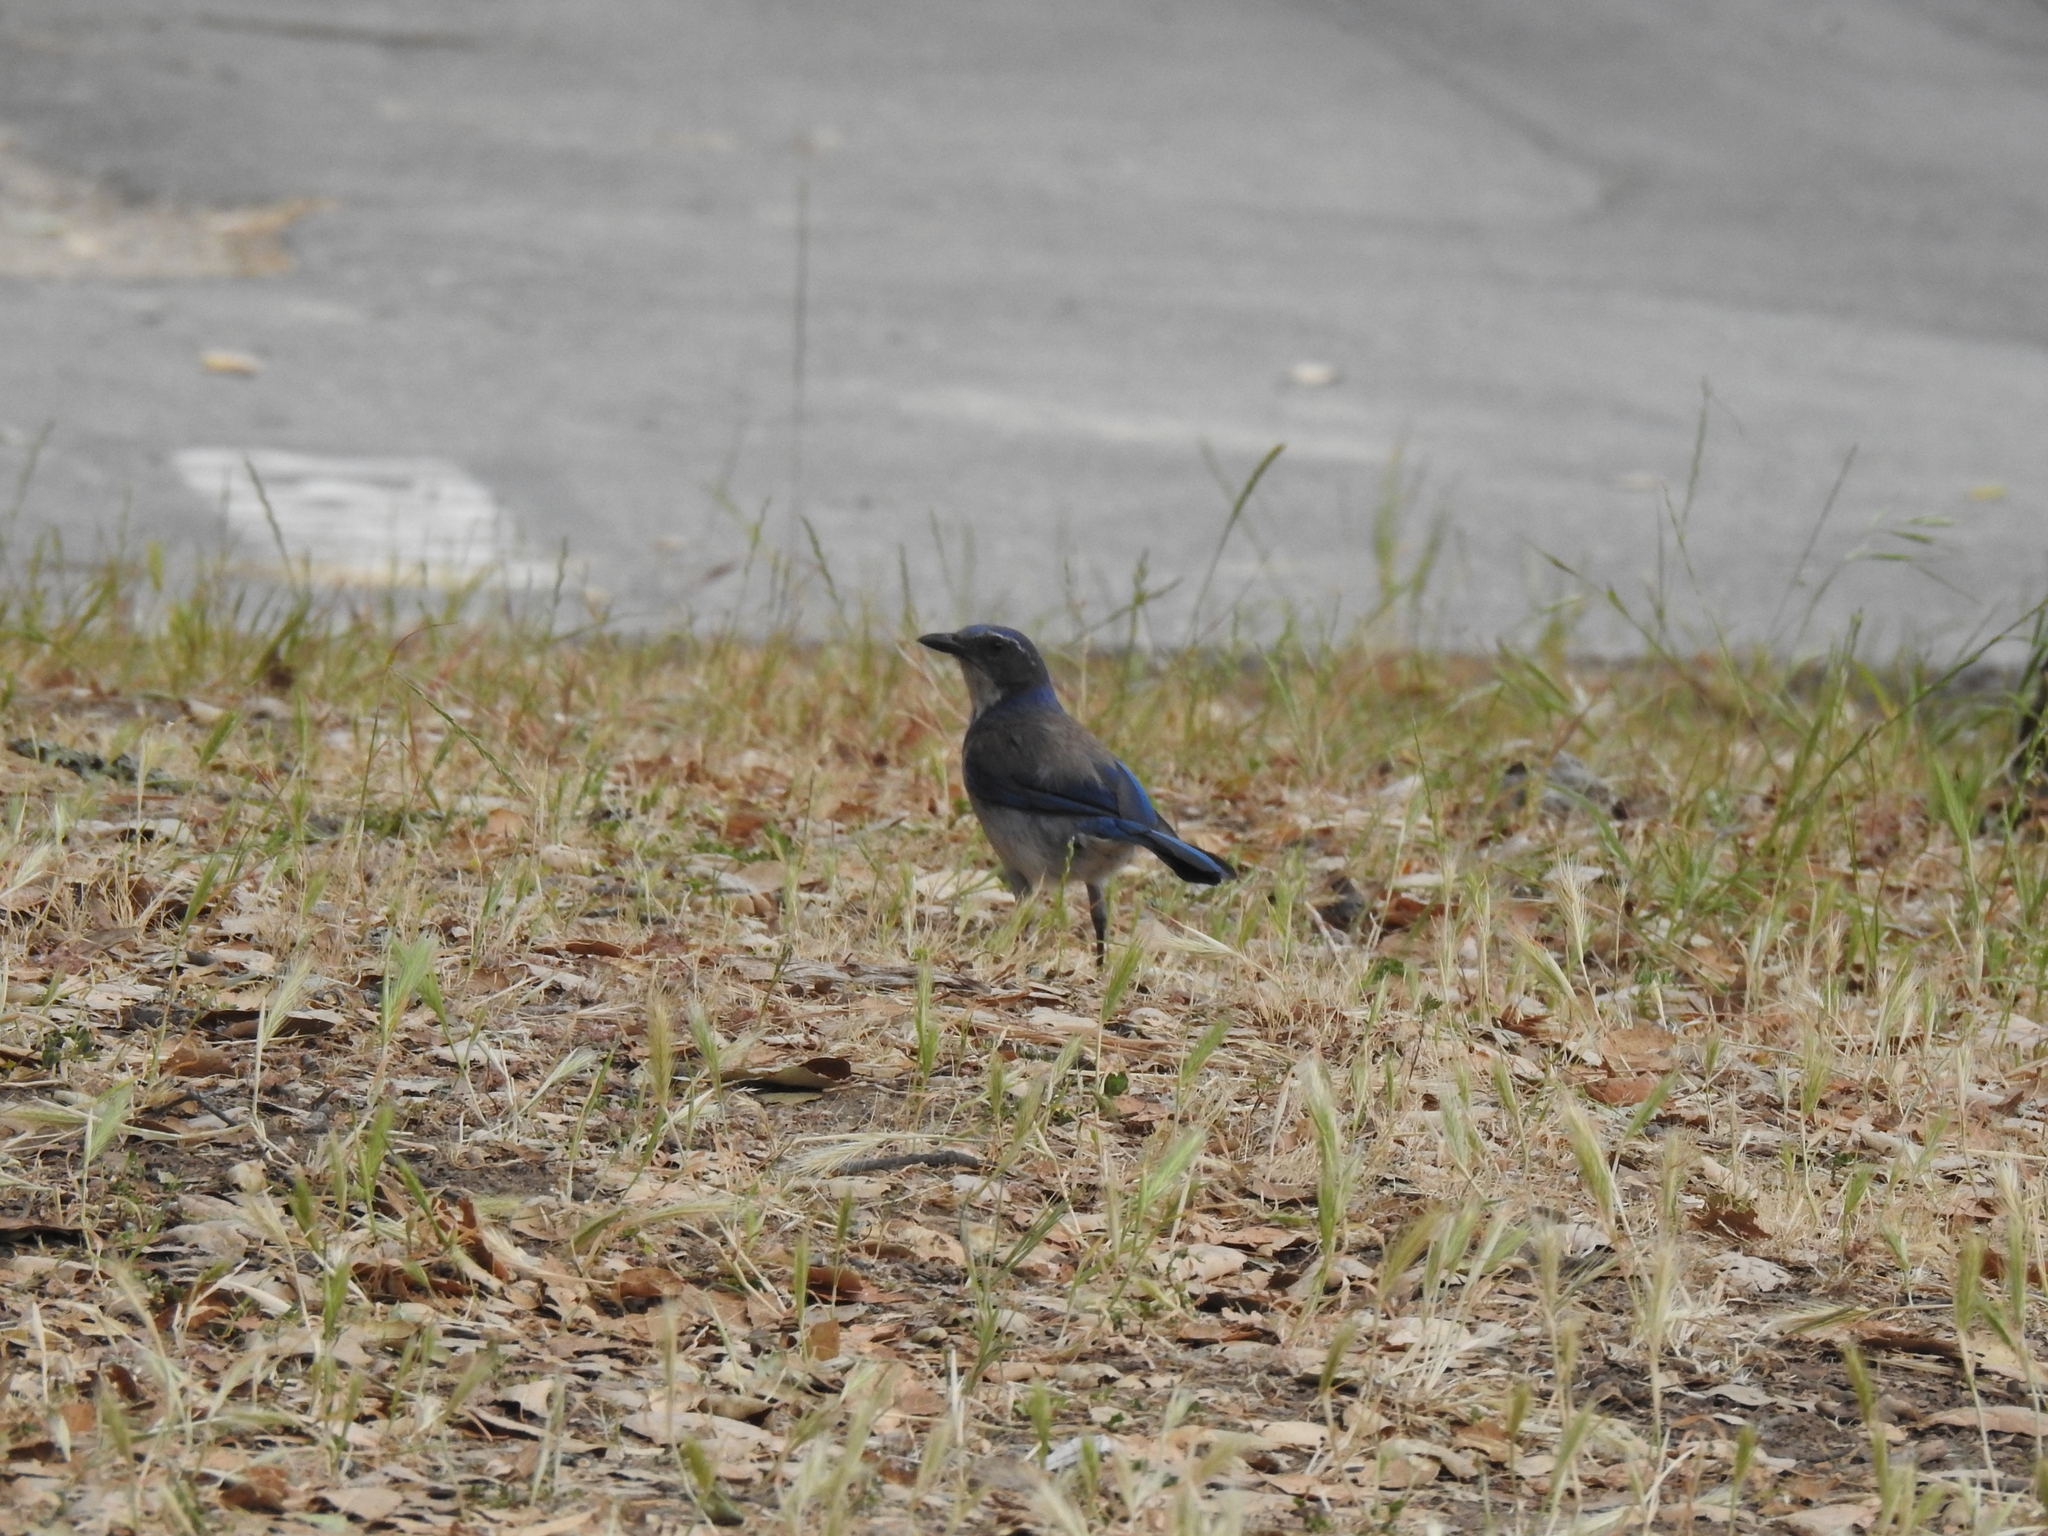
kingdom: Animalia
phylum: Chordata
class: Aves
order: Passeriformes
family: Corvidae
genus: Aphelocoma
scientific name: Aphelocoma californica
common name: California scrub-jay
